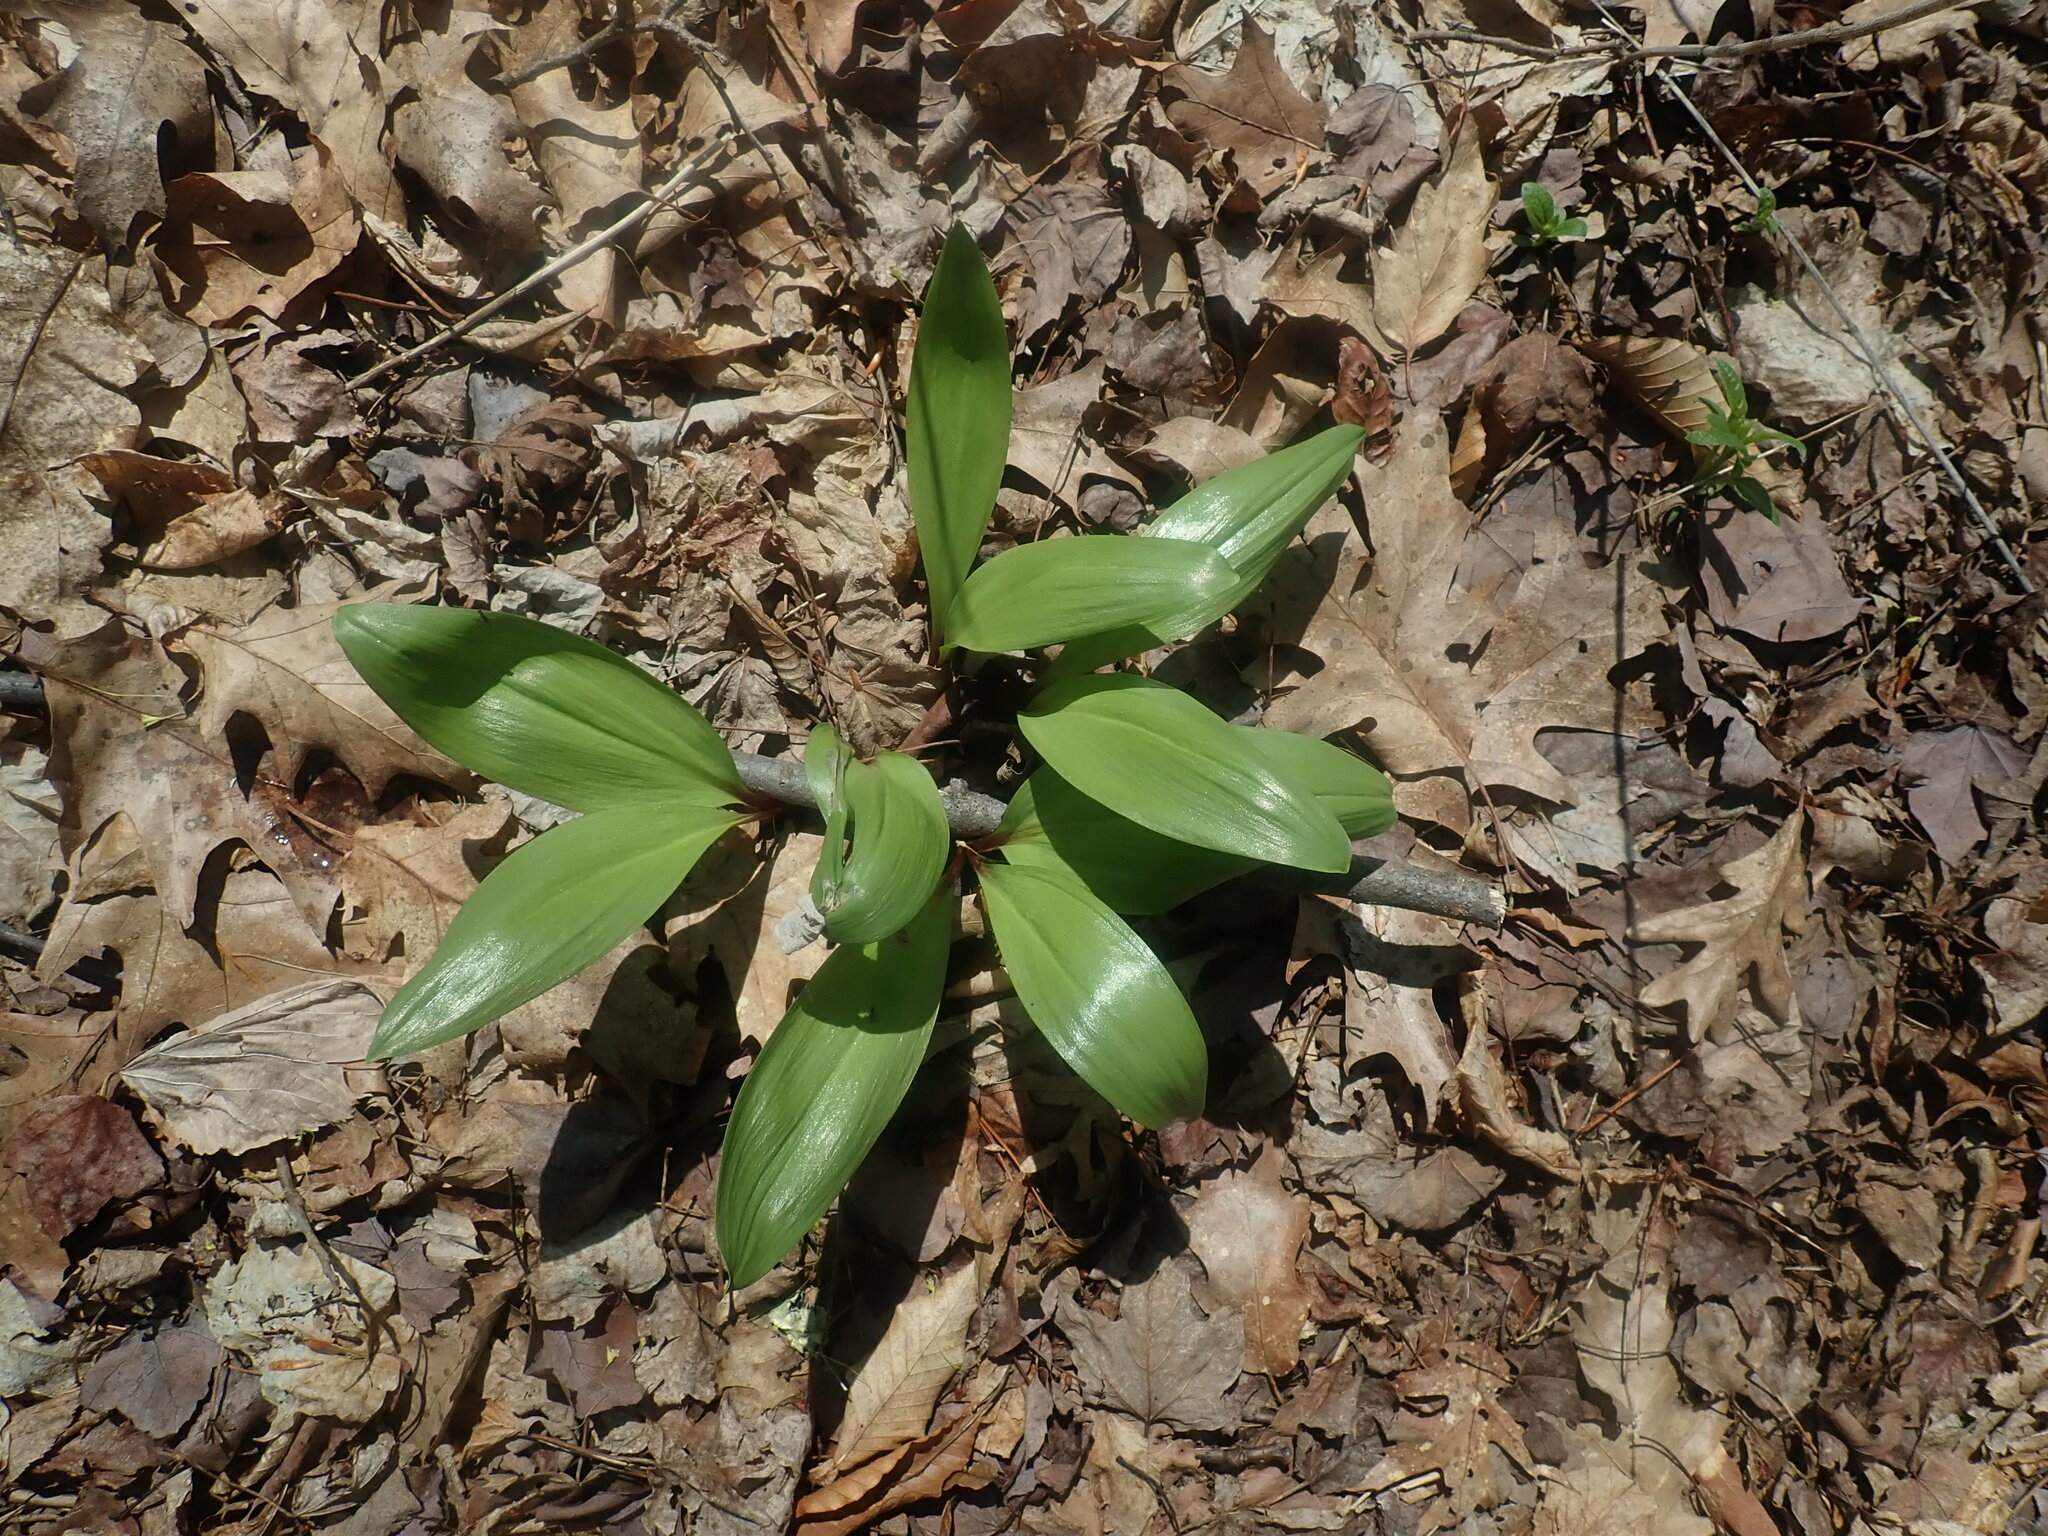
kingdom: Plantae
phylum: Tracheophyta
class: Liliopsida
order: Asparagales
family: Amaryllidaceae
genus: Allium
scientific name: Allium tricoccum
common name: Ramp
